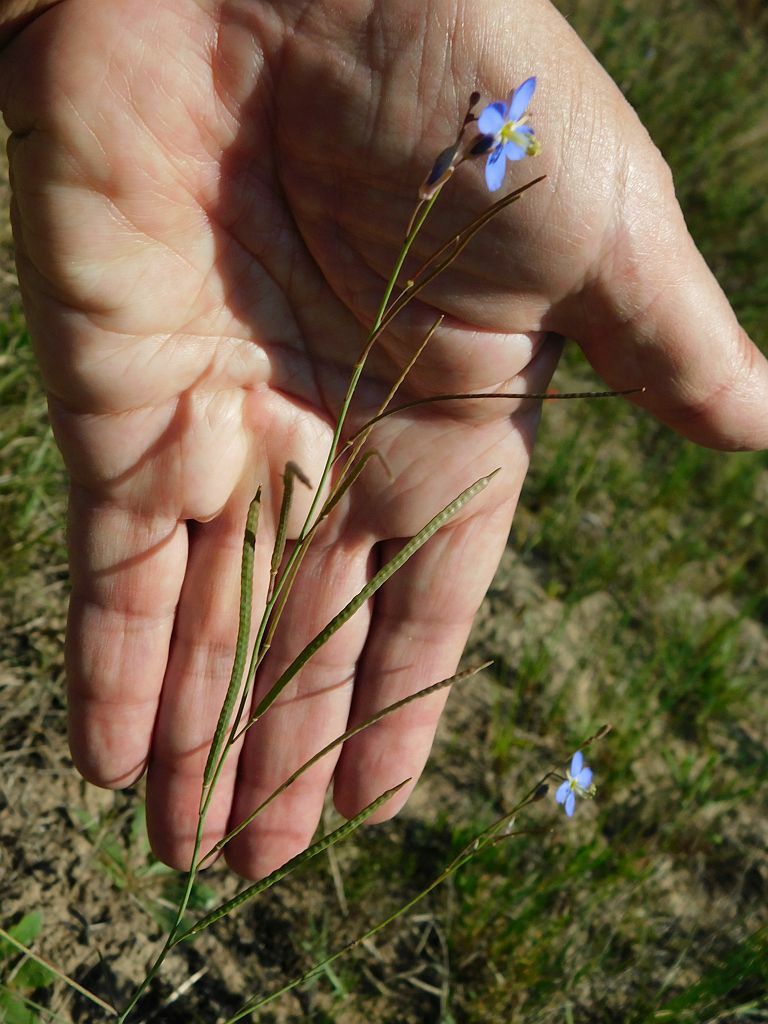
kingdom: Plantae
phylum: Tracheophyta
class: Magnoliopsida
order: Brassicales
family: Brassicaceae
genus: Heliophila
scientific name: Heliophila linoides
